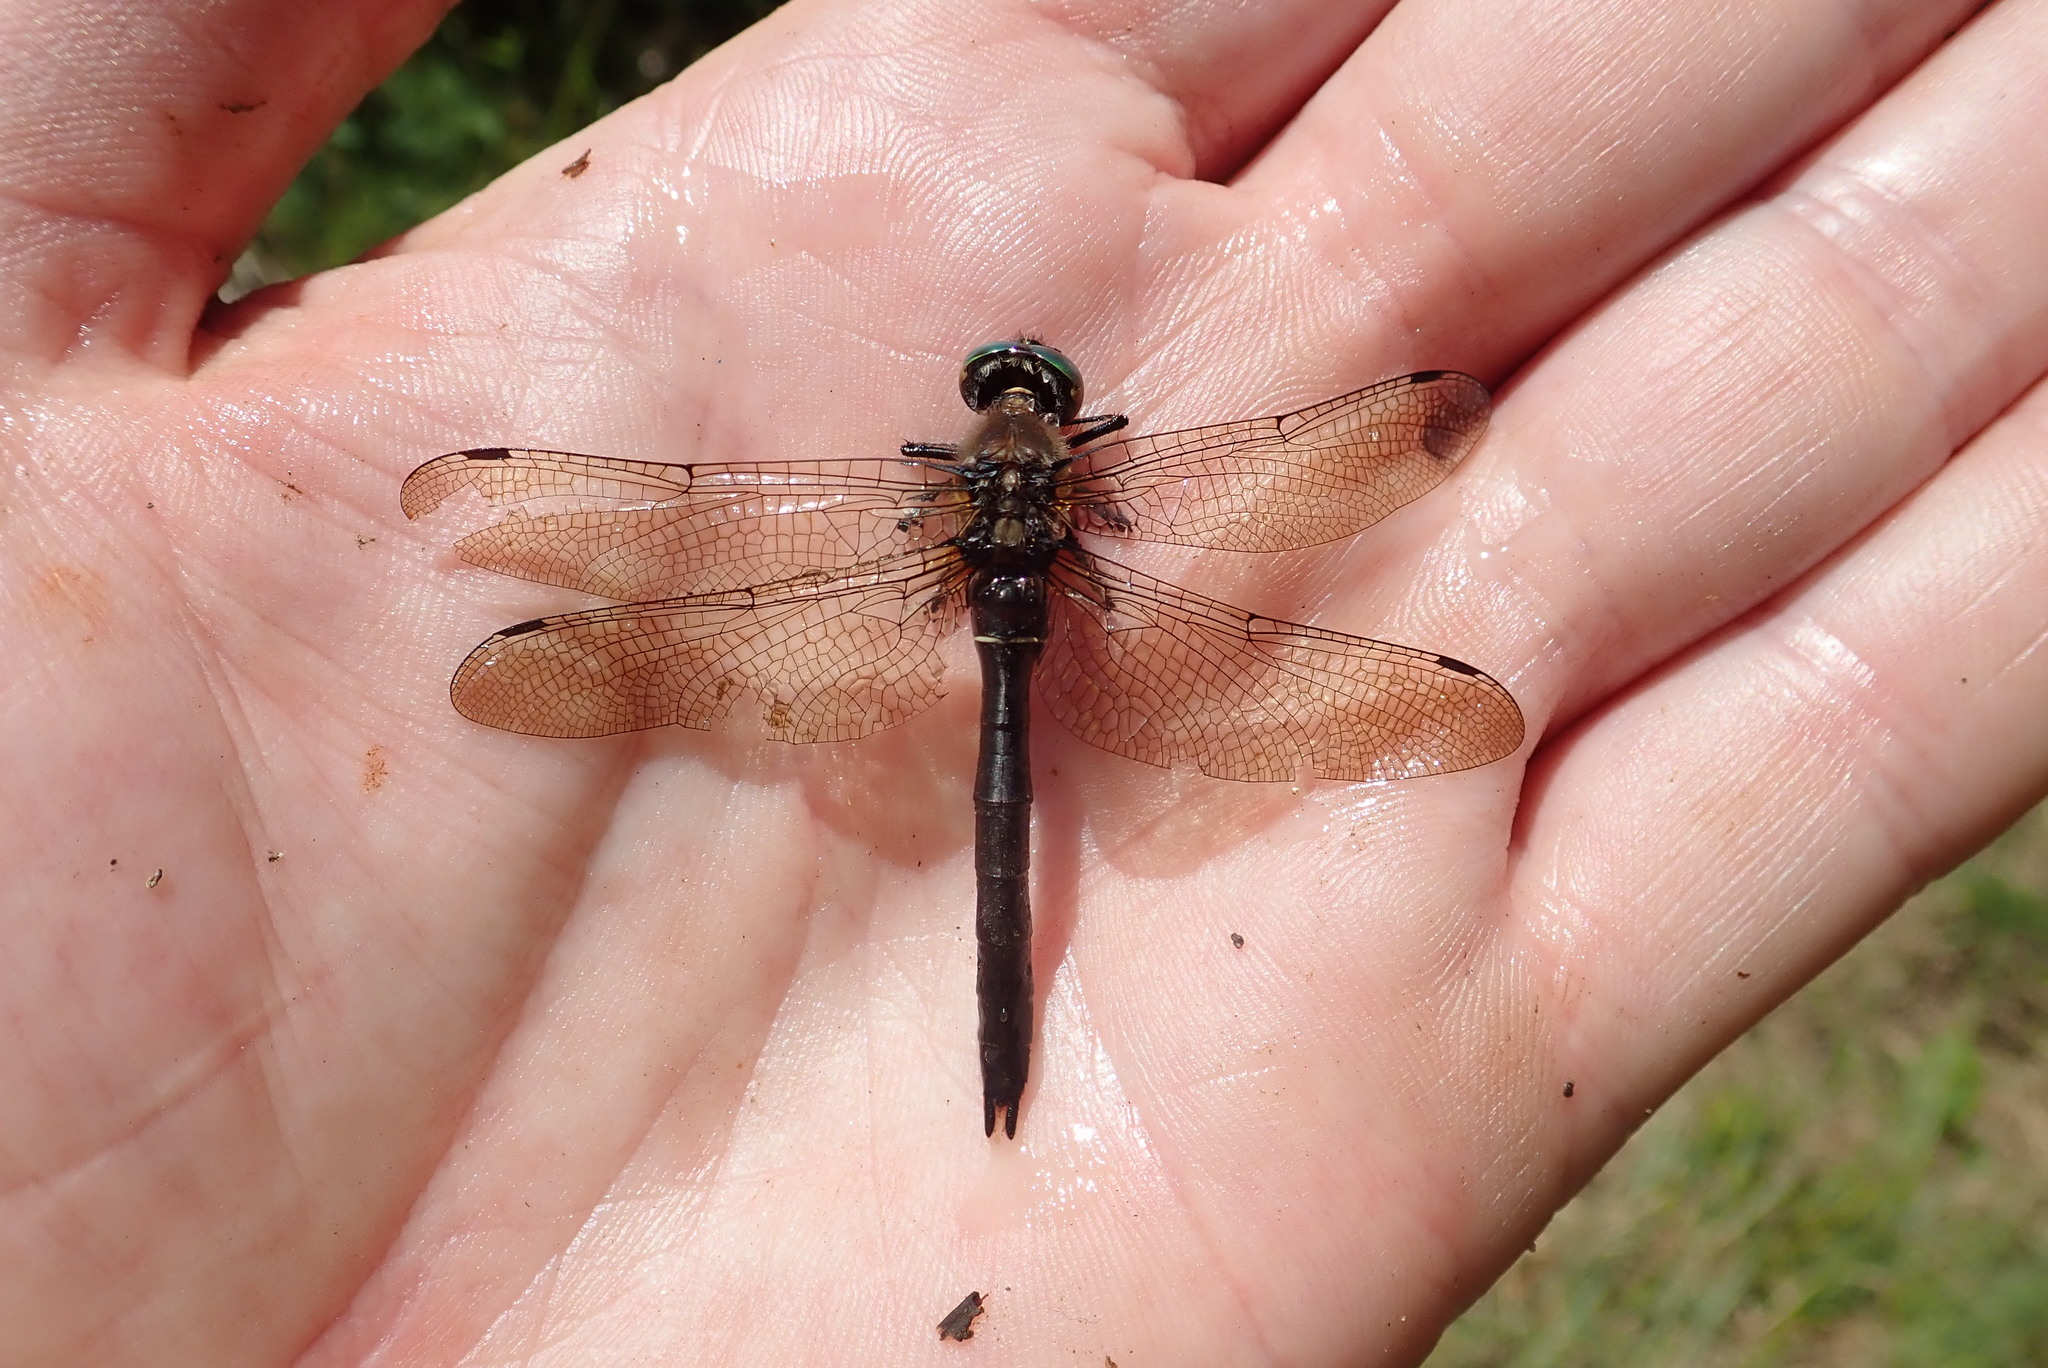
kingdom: Animalia
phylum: Arthropoda
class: Insecta
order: Odonata
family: Corduliidae
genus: Cordulia
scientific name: Cordulia shurtleffii
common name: American emerald
